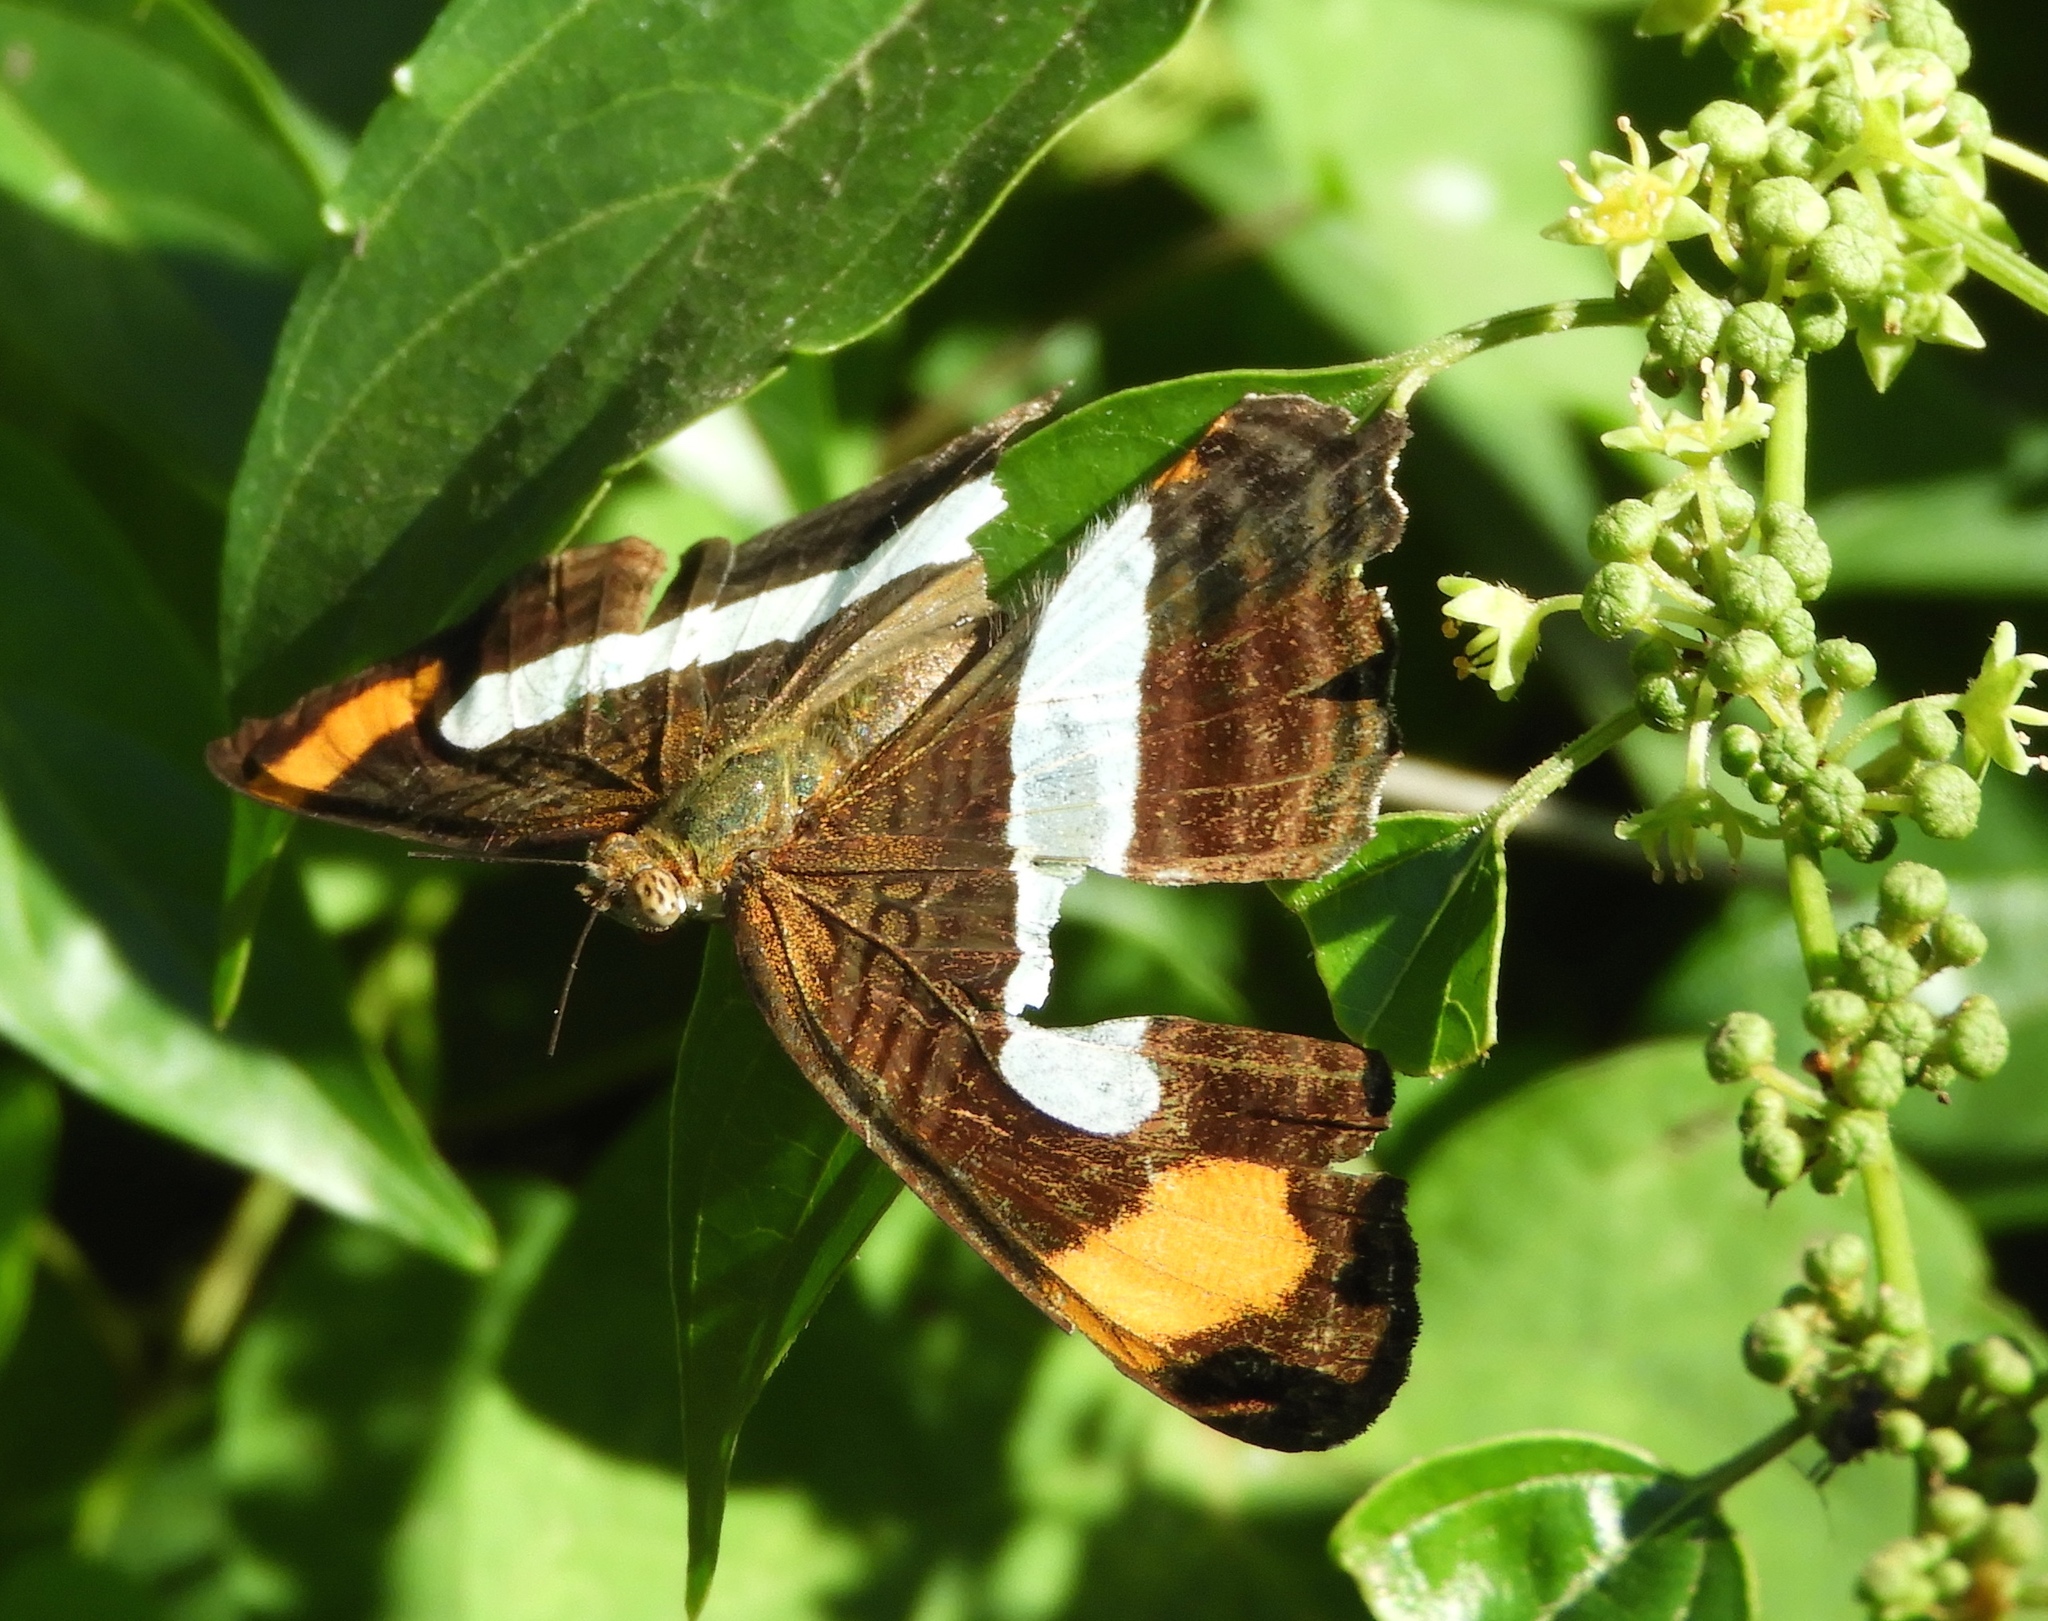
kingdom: Animalia
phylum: Arthropoda
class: Insecta
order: Lepidoptera
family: Nymphalidae
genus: Limenitis
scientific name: Limenitis iphiclus
